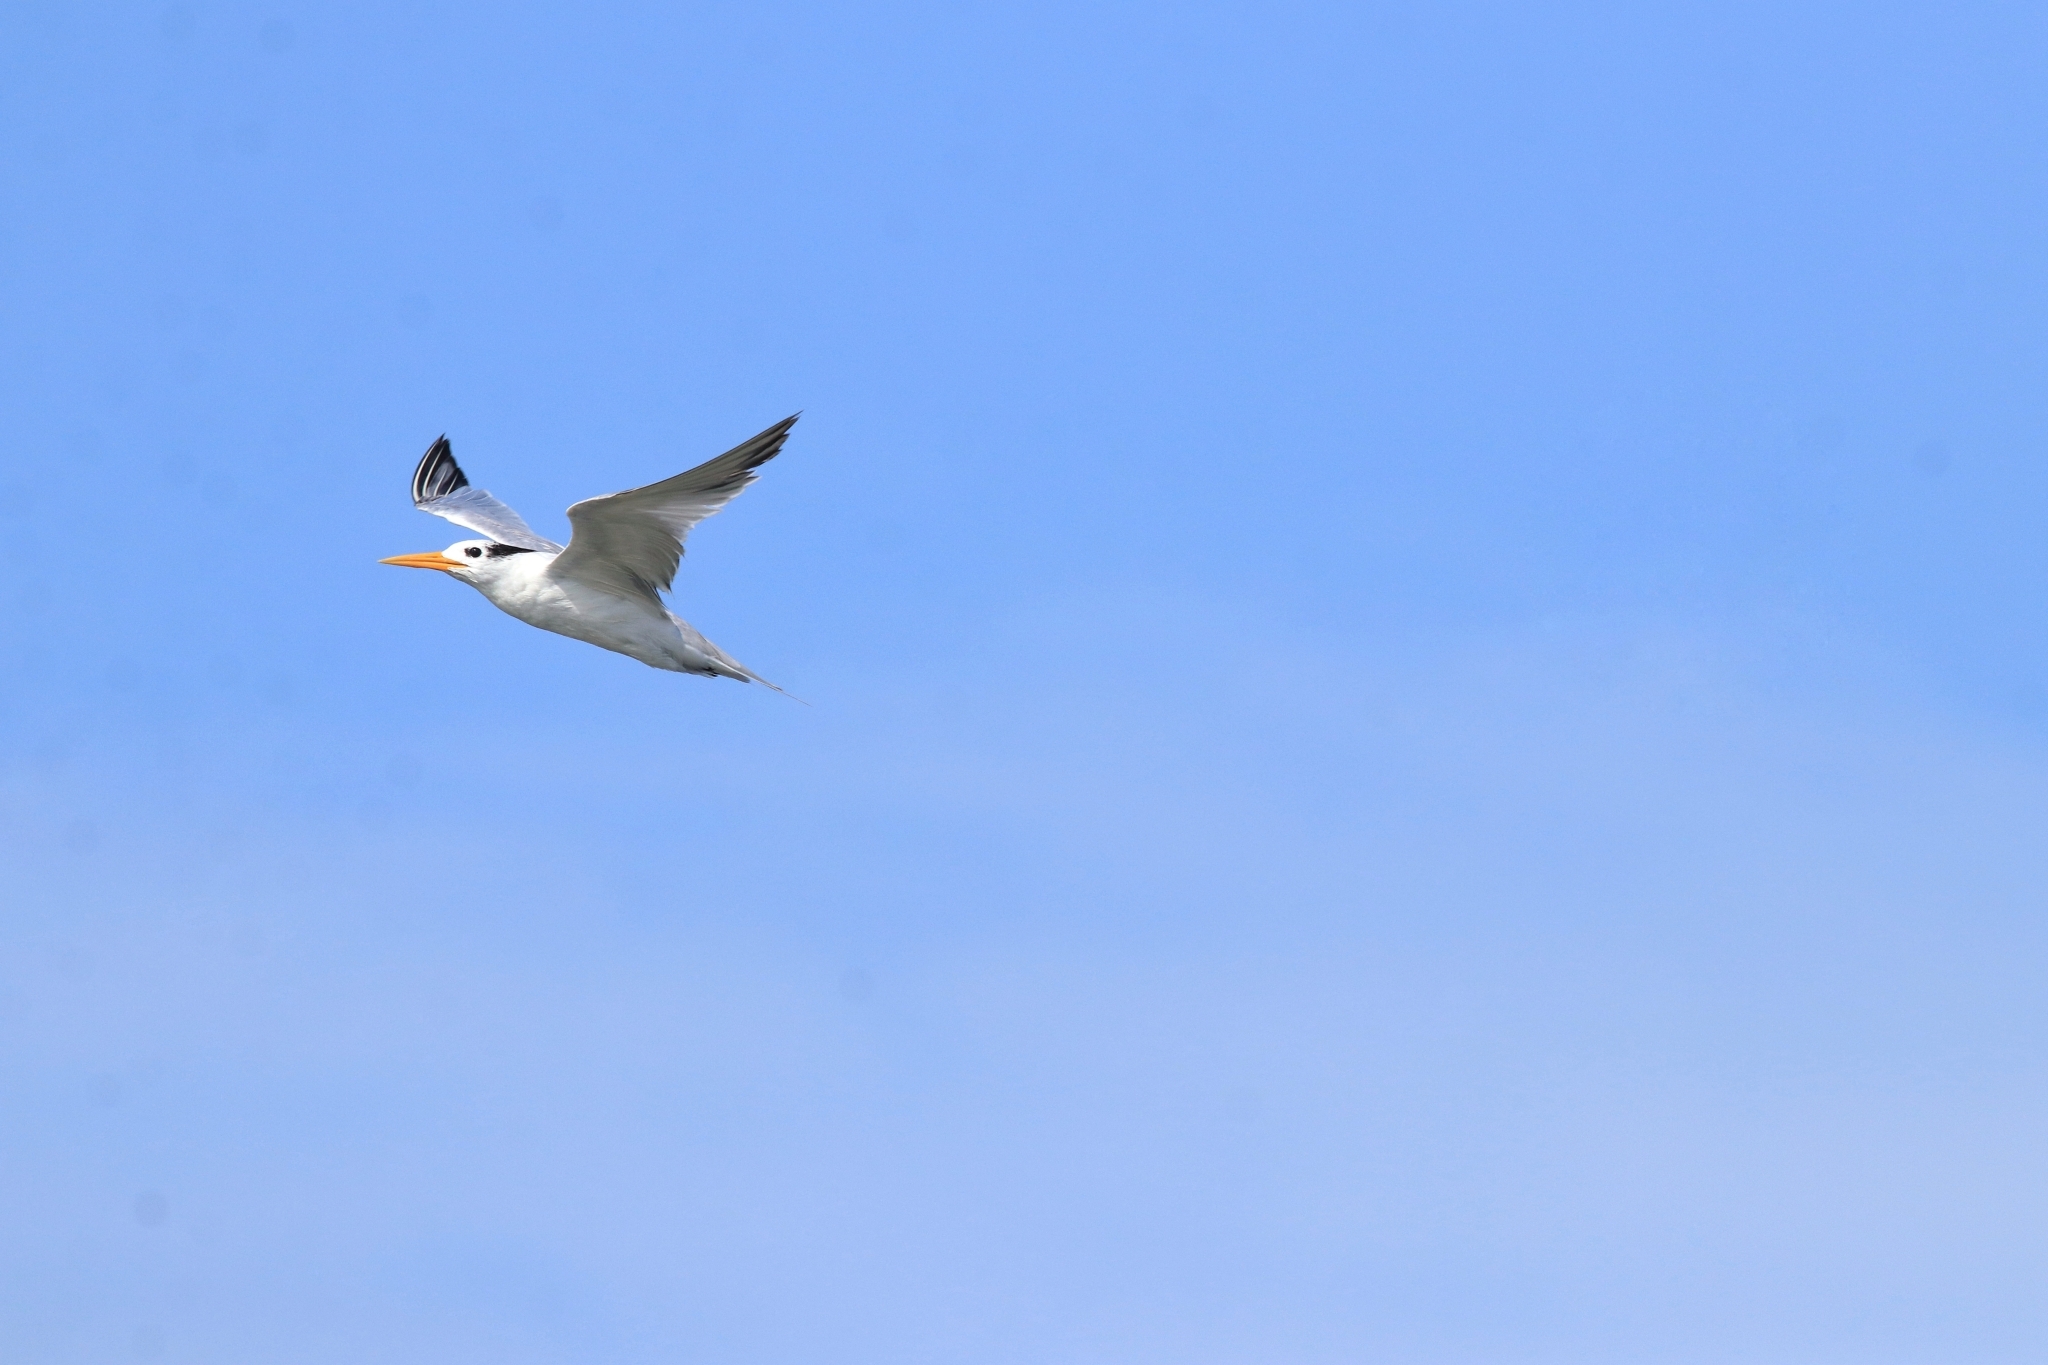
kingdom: Animalia
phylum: Chordata
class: Aves
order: Charadriiformes
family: Laridae
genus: Thalasseus
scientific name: Thalasseus bengalensis
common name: Lesser crested tern
